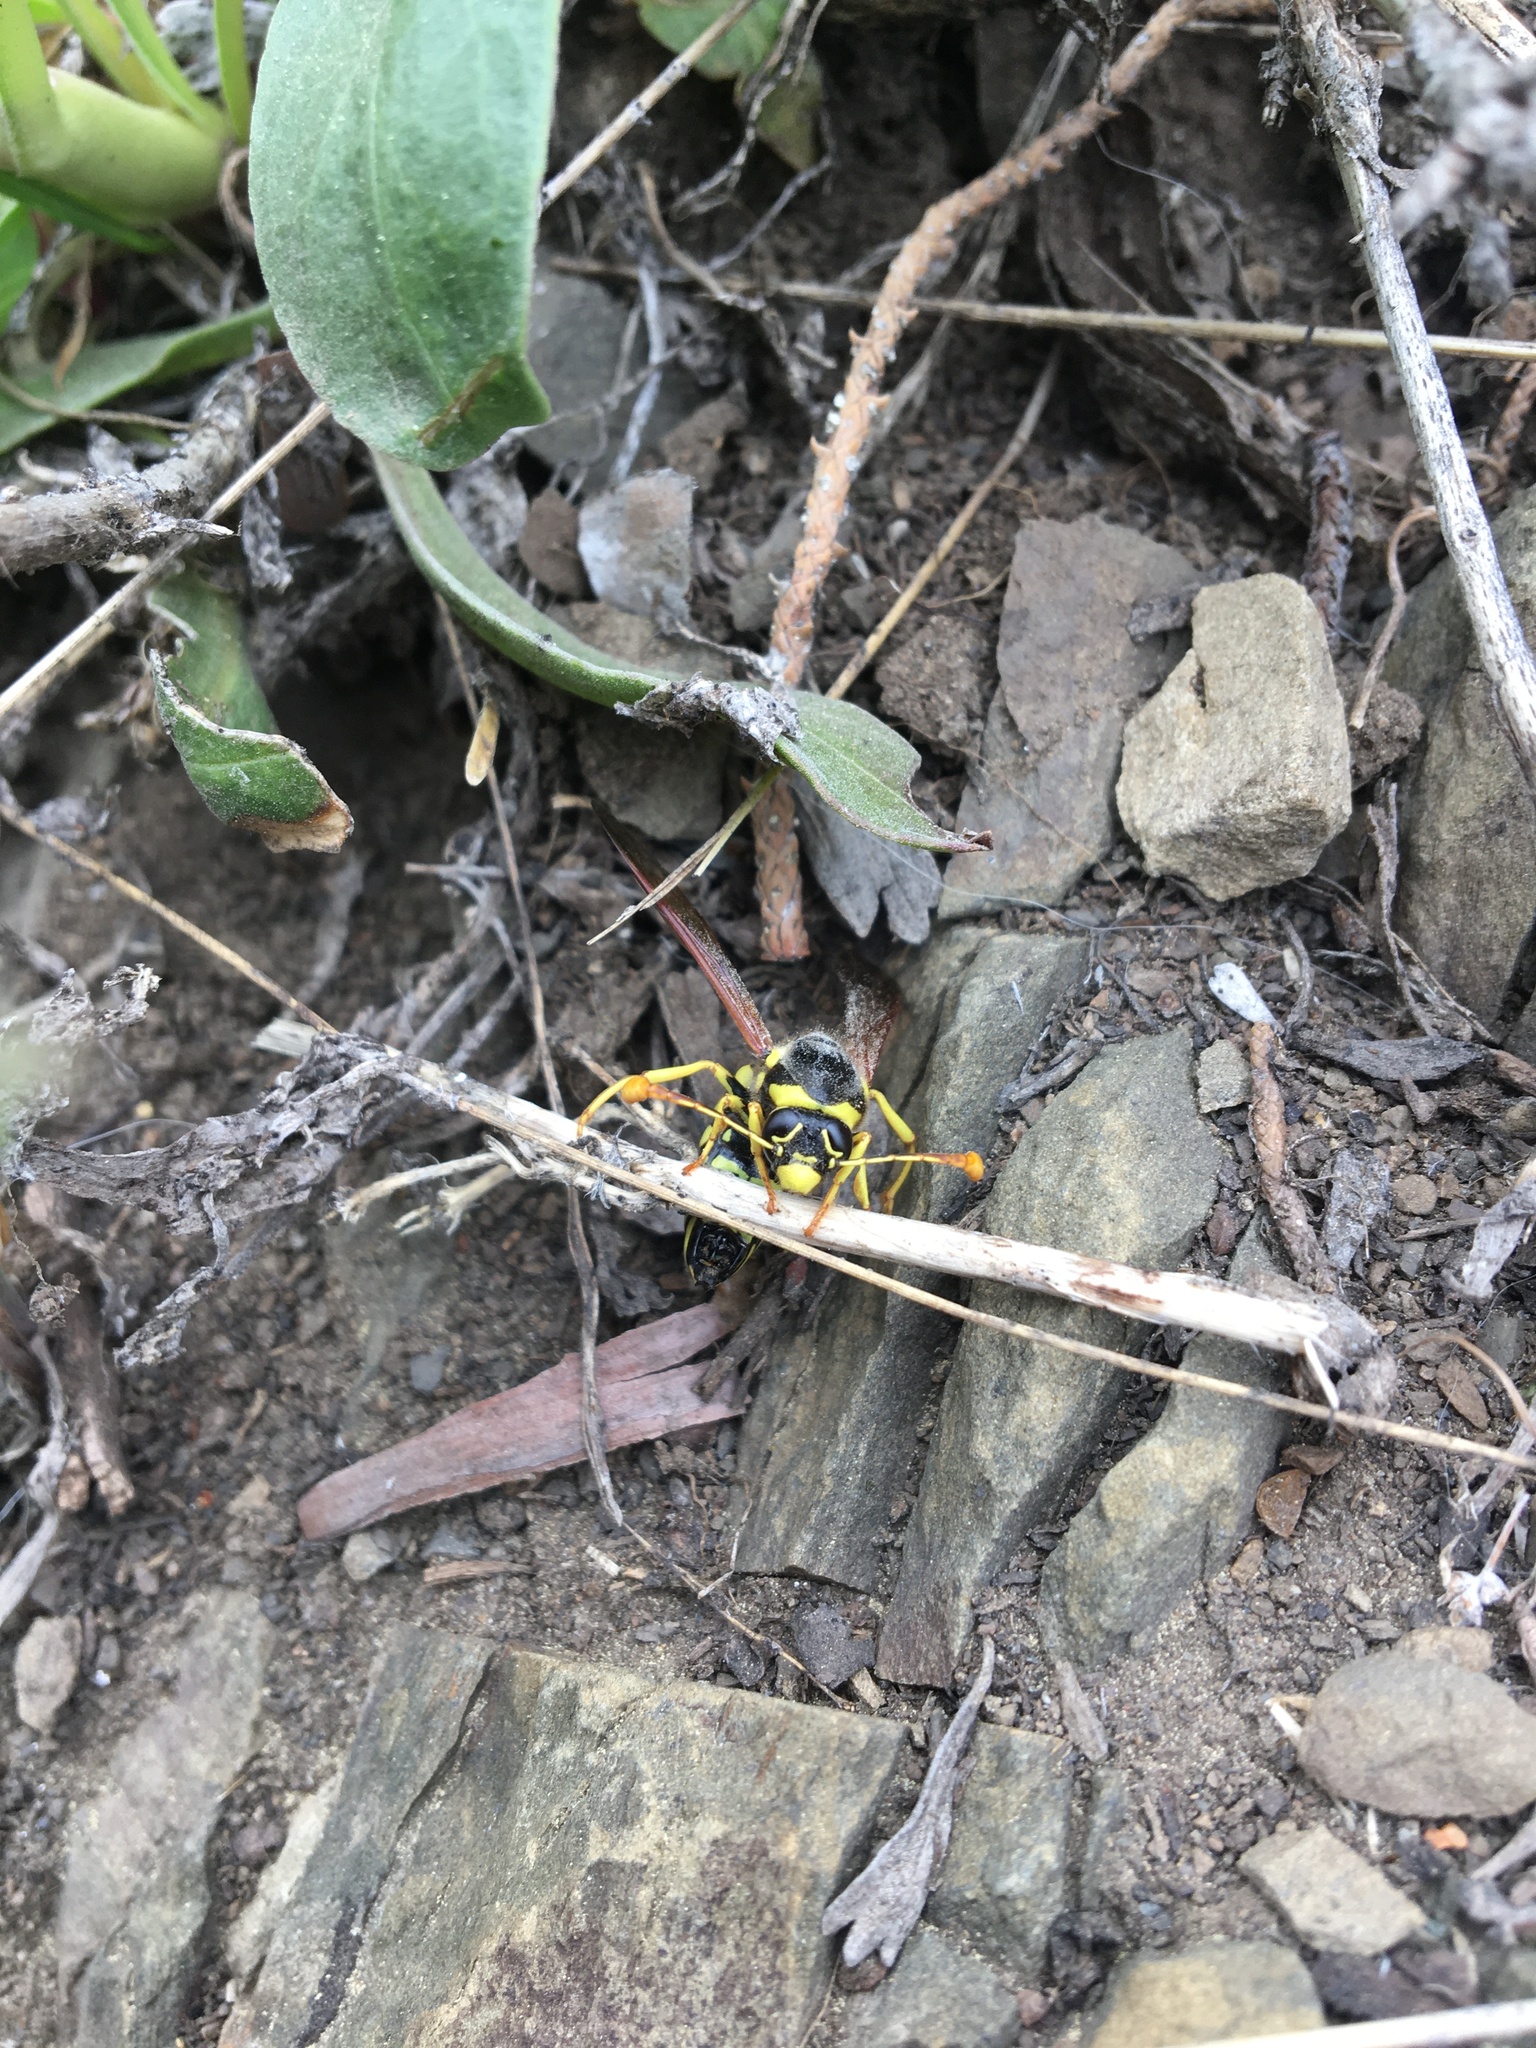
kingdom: Animalia
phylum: Arthropoda
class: Insecta
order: Hymenoptera
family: Masaridae
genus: Pseudomasaris
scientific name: Pseudomasaris vespoides
